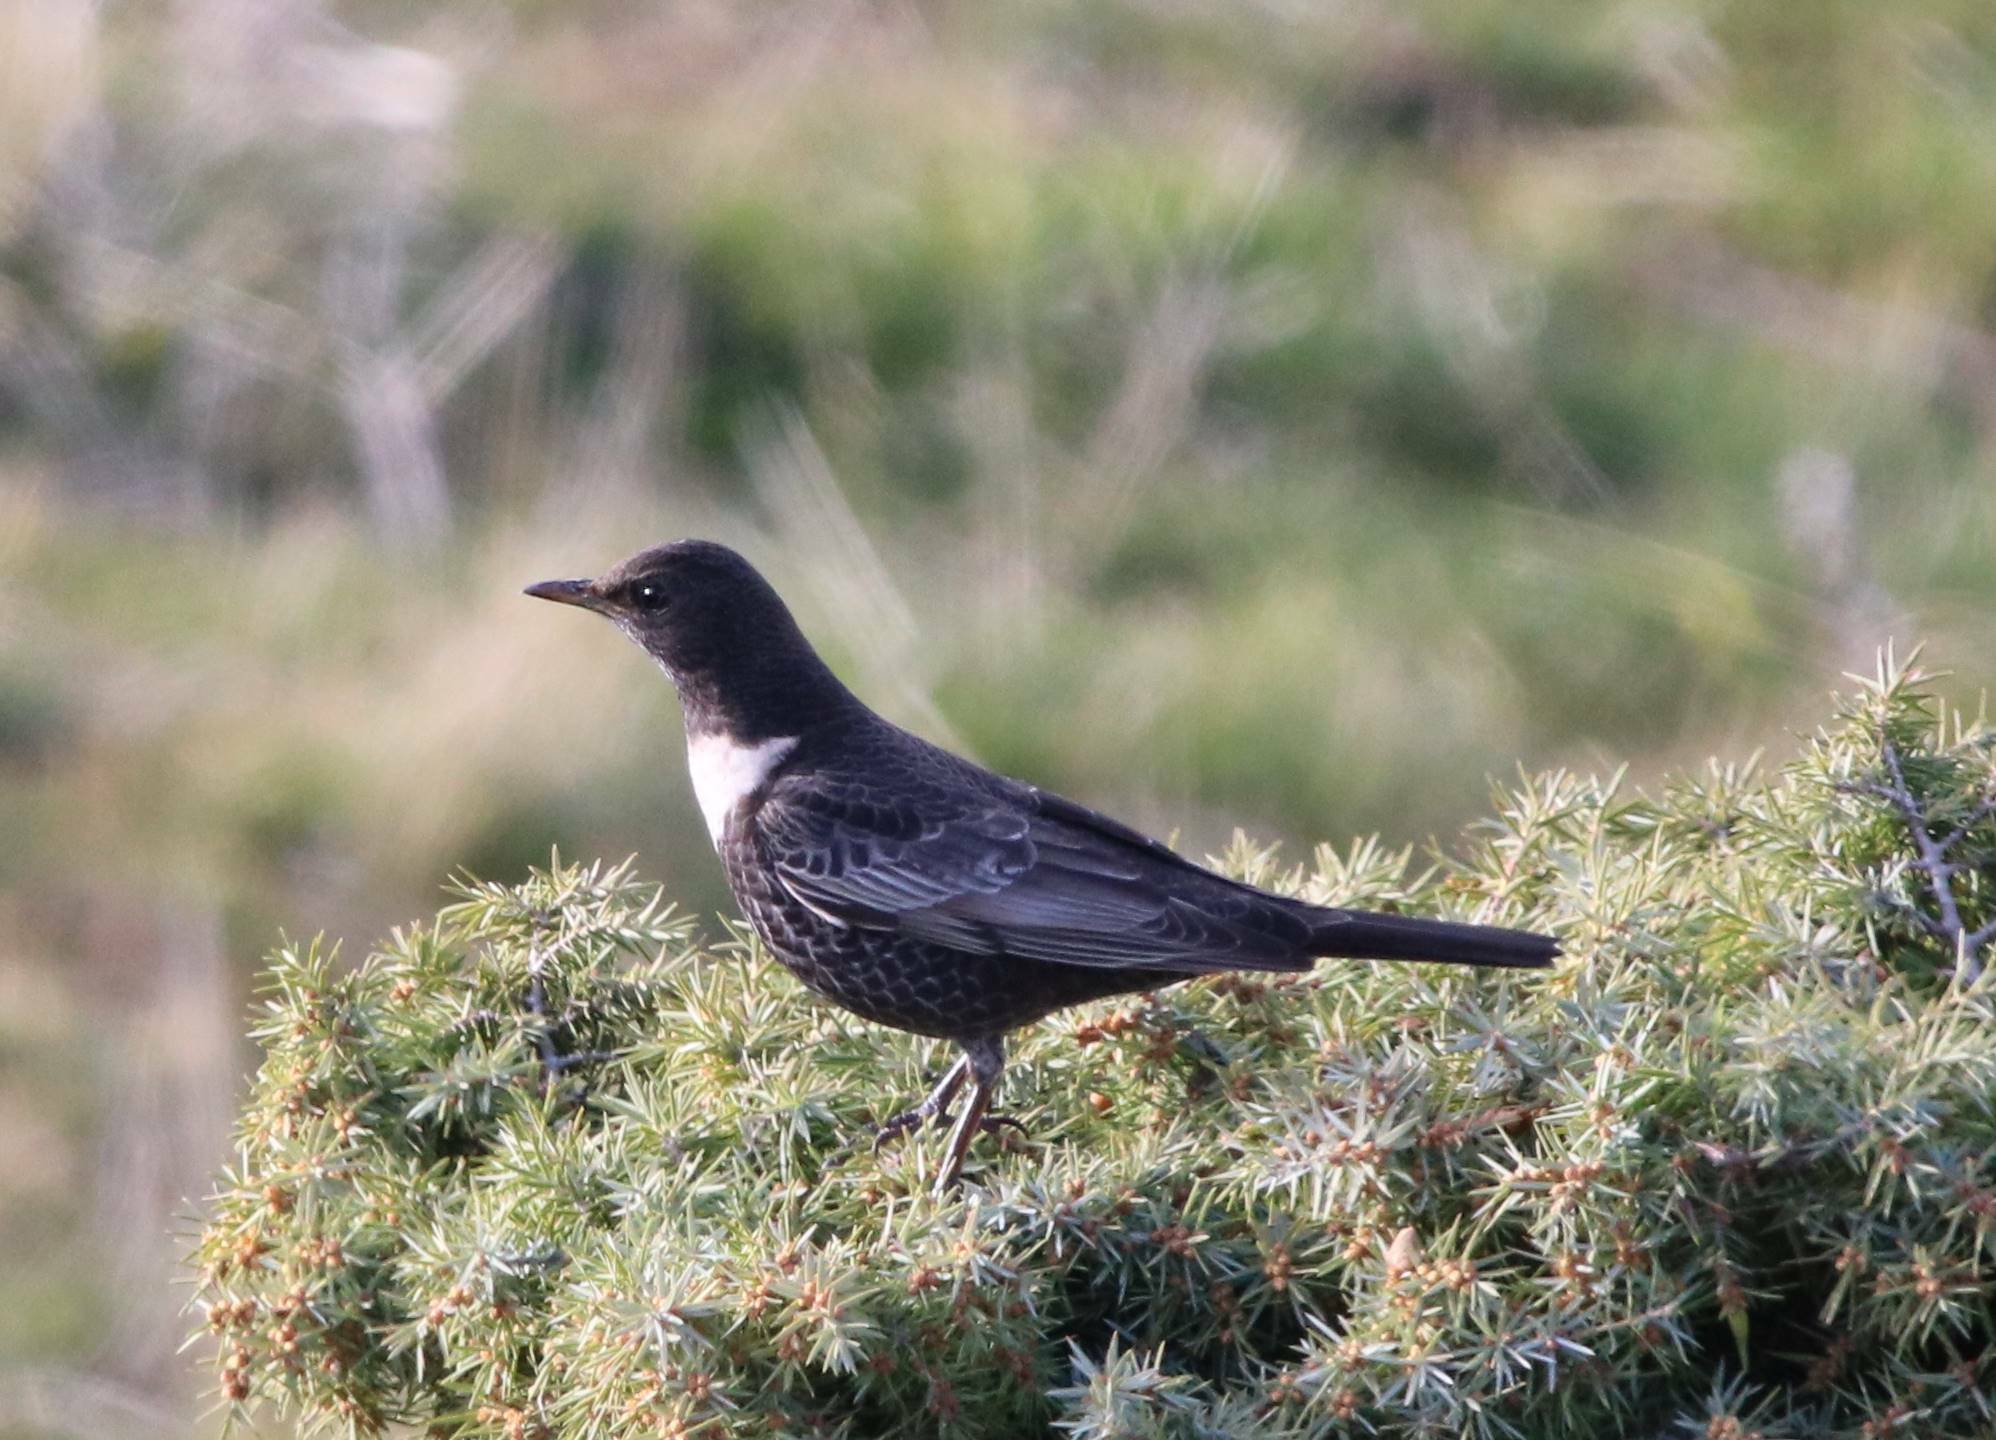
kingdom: Animalia
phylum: Chordata
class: Aves
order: Passeriformes
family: Turdidae
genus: Turdus
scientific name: Turdus torquatus
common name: Ring ouzel
